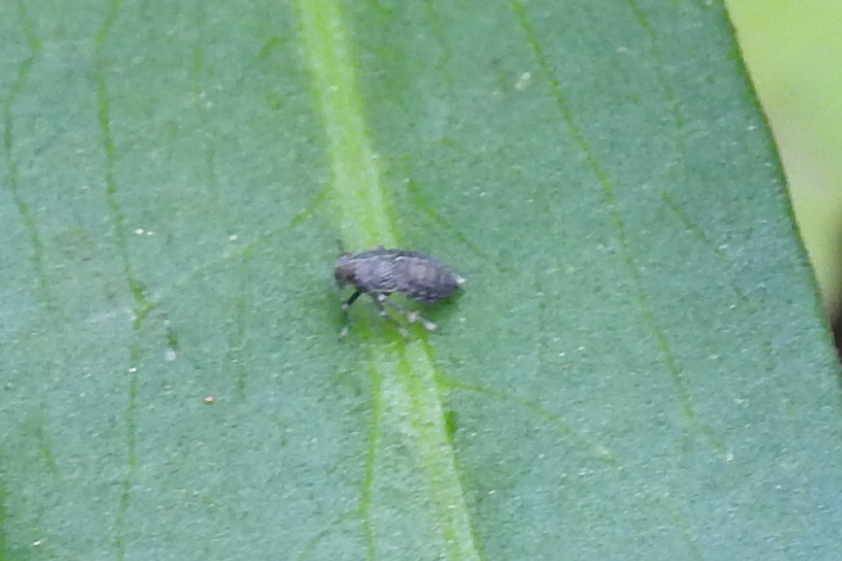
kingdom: Animalia
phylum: Arthropoda
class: Insecta
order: Hemiptera
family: Delphacidae
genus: Pissonotus
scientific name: Pissonotus brunneus
